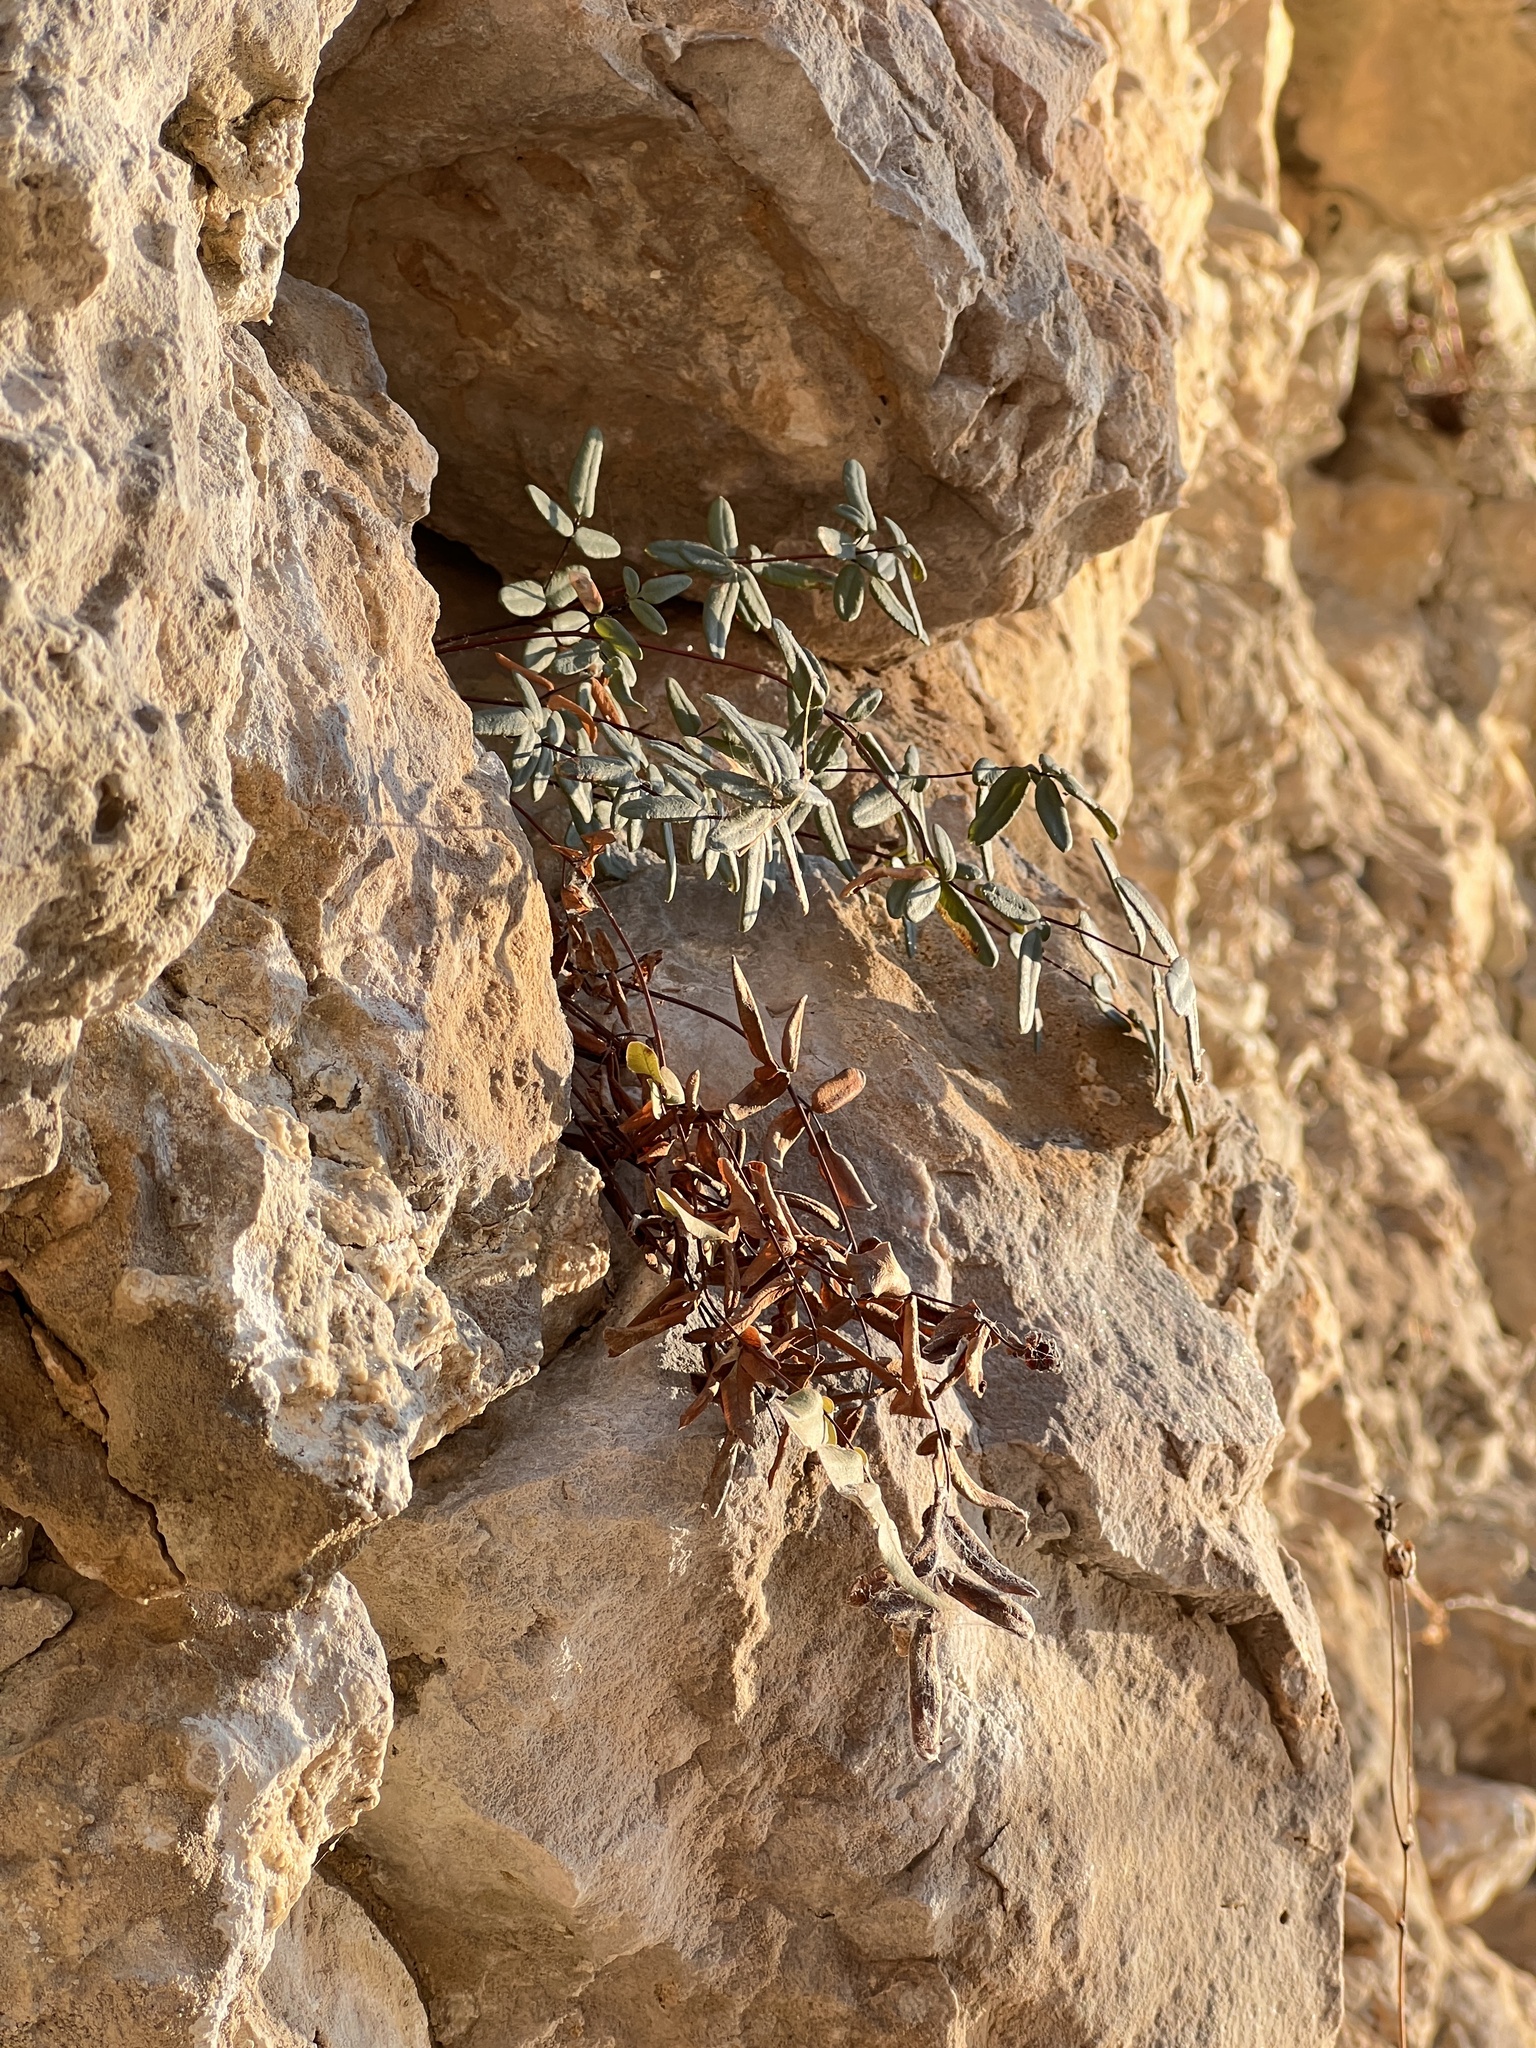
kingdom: Plantae
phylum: Tracheophyta
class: Polypodiopsida
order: Polypodiales
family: Pteridaceae
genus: Pellaea
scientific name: Pellaea glabella
